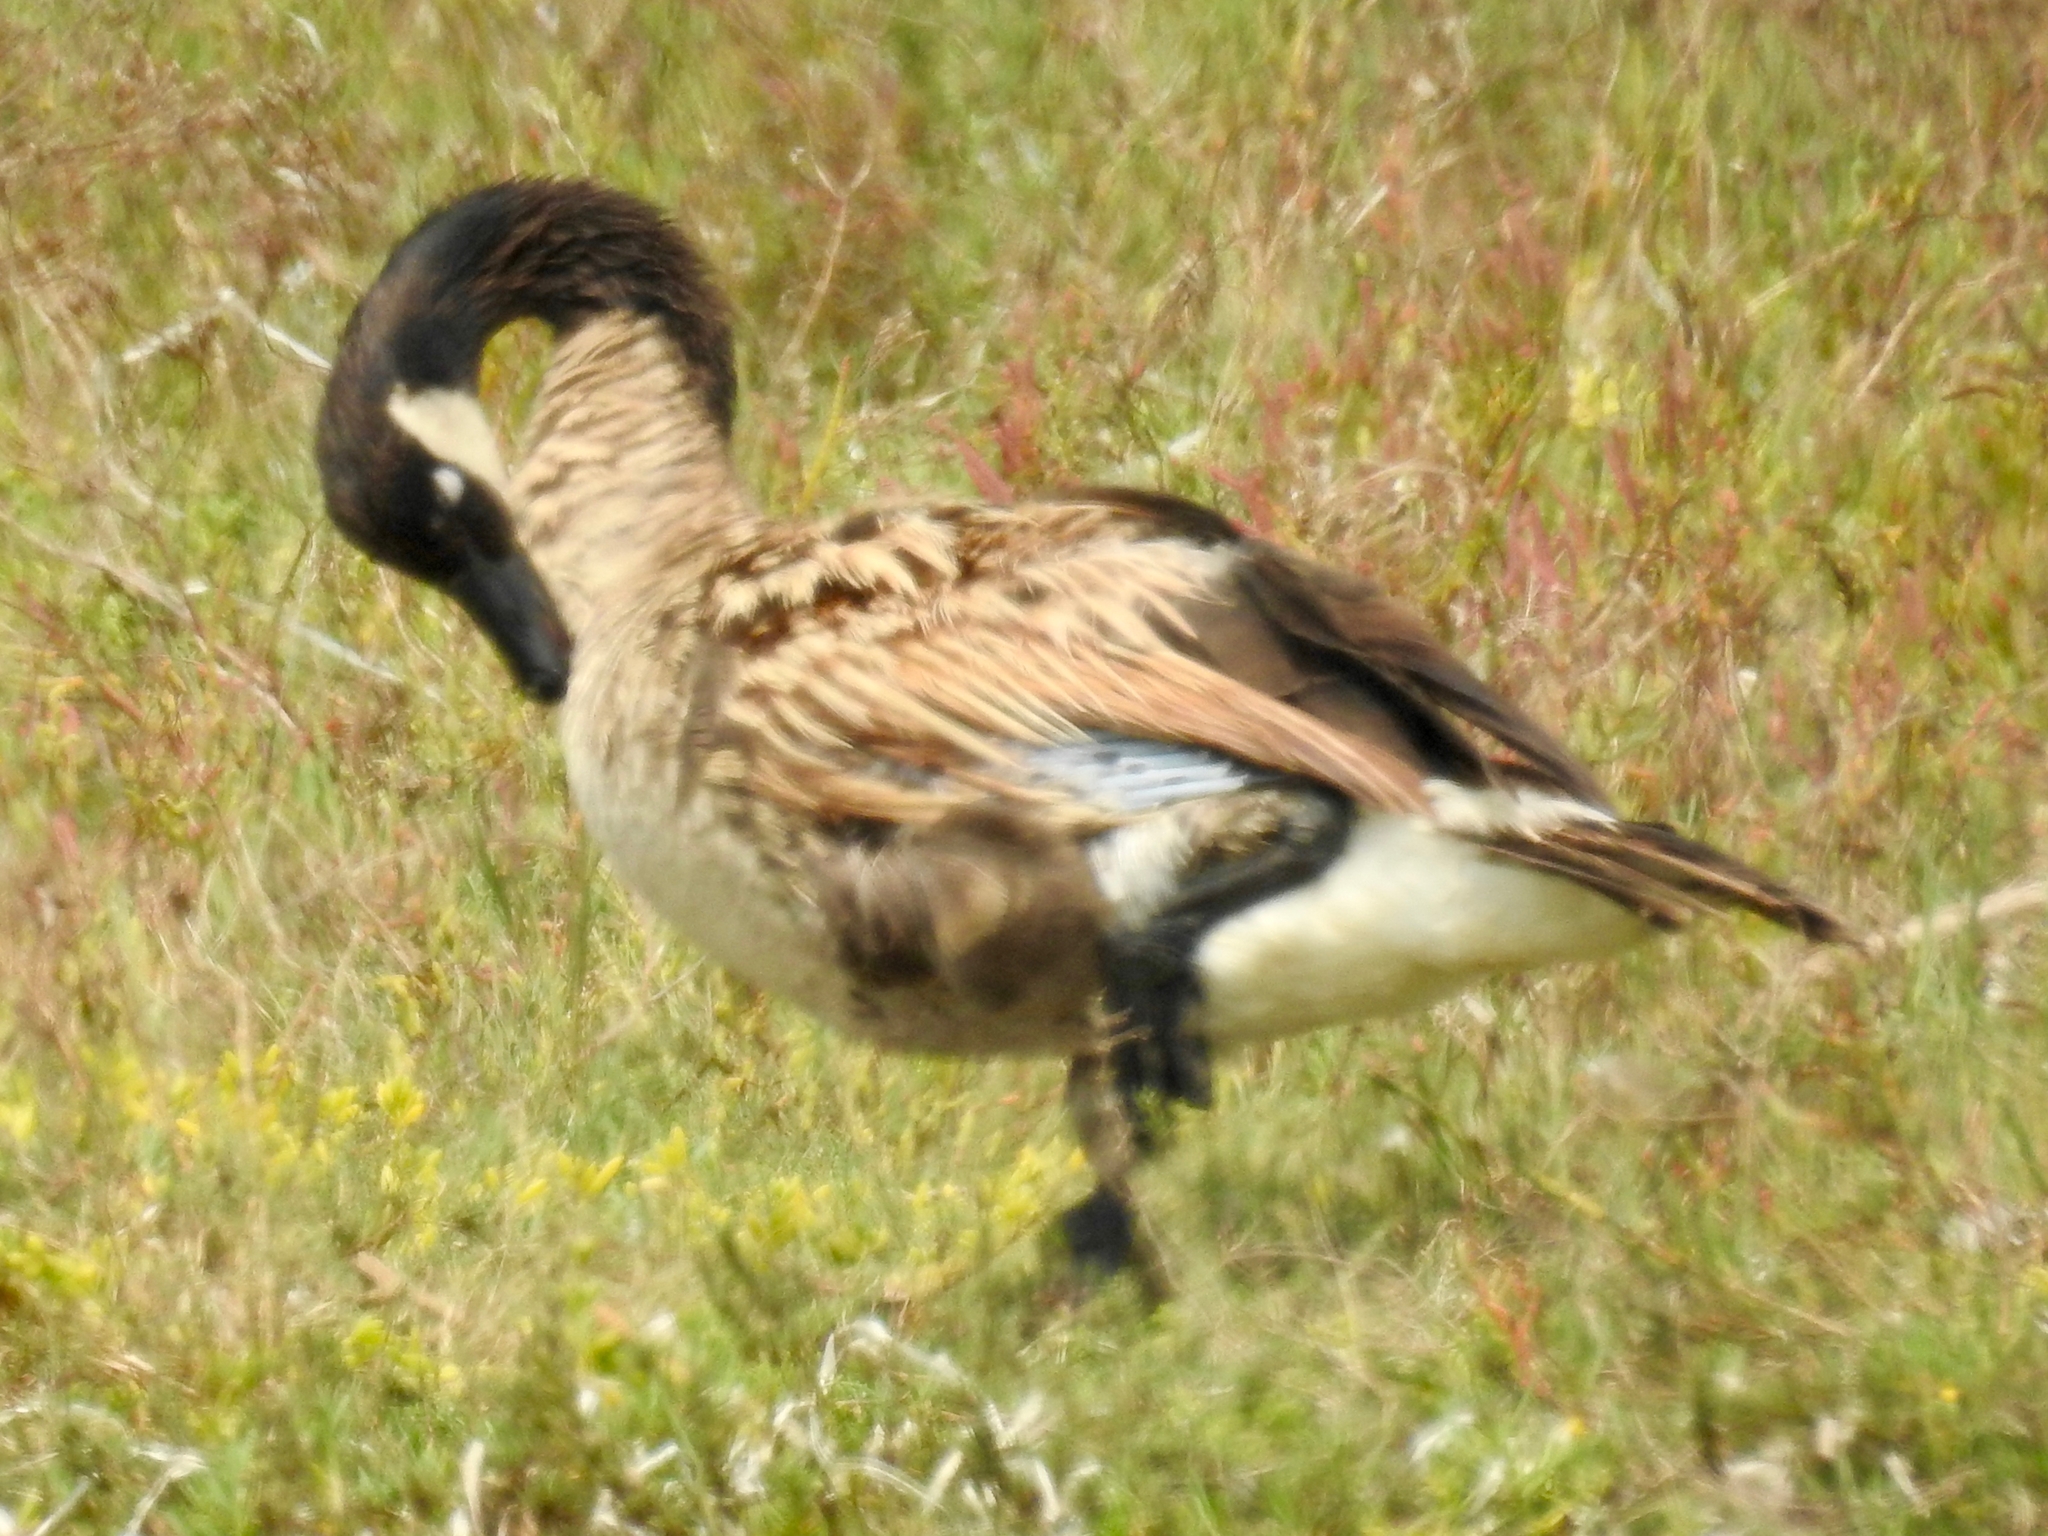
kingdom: Animalia
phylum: Chordata
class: Aves
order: Anseriformes
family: Anatidae
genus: Branta
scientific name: Branta canadensis
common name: Canada goose
